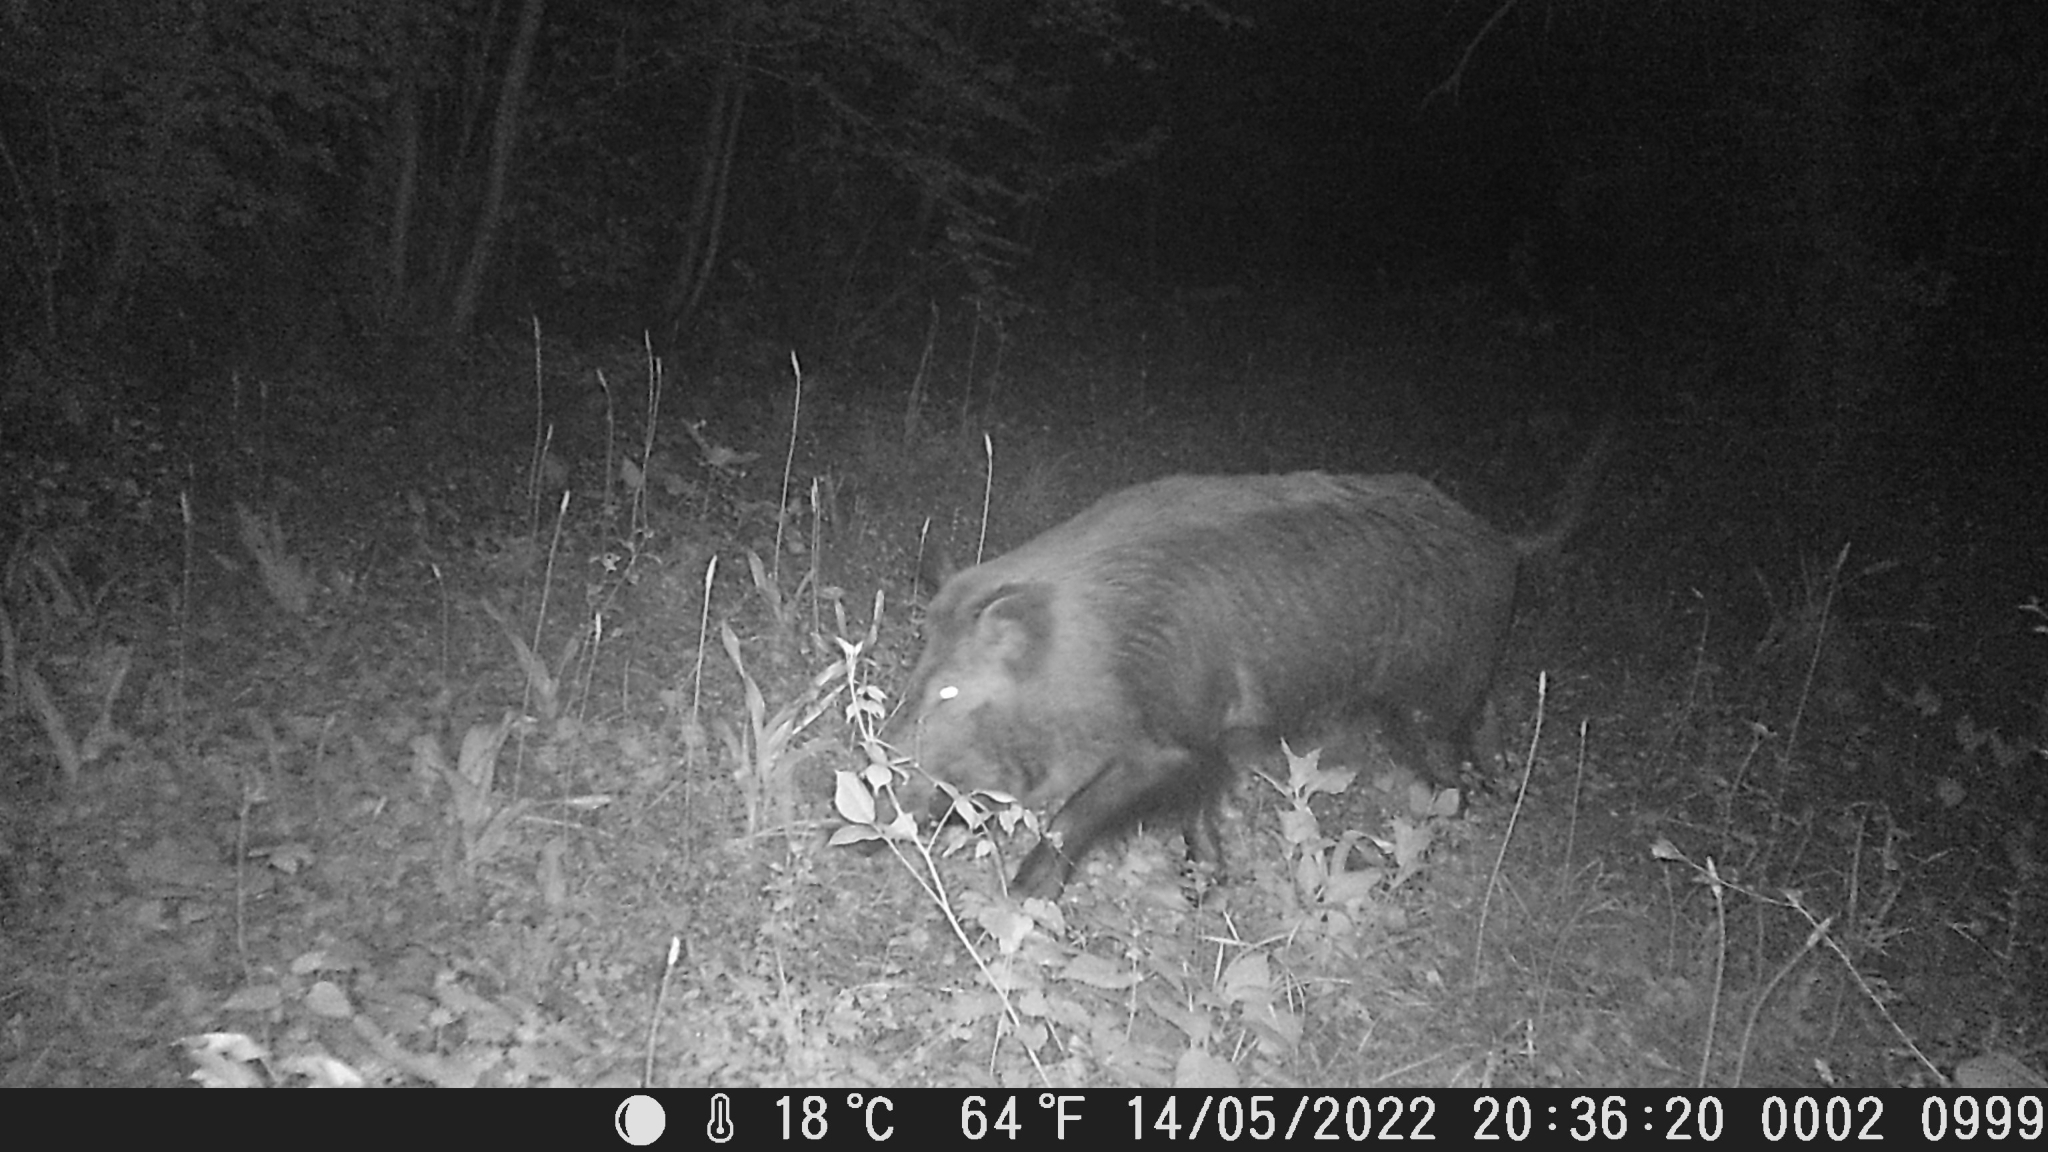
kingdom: Animalia
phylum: Chordata
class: Mammalia
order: Artiodactyla
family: Suidae
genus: Sus
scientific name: Sus scrofa
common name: Wild boar
